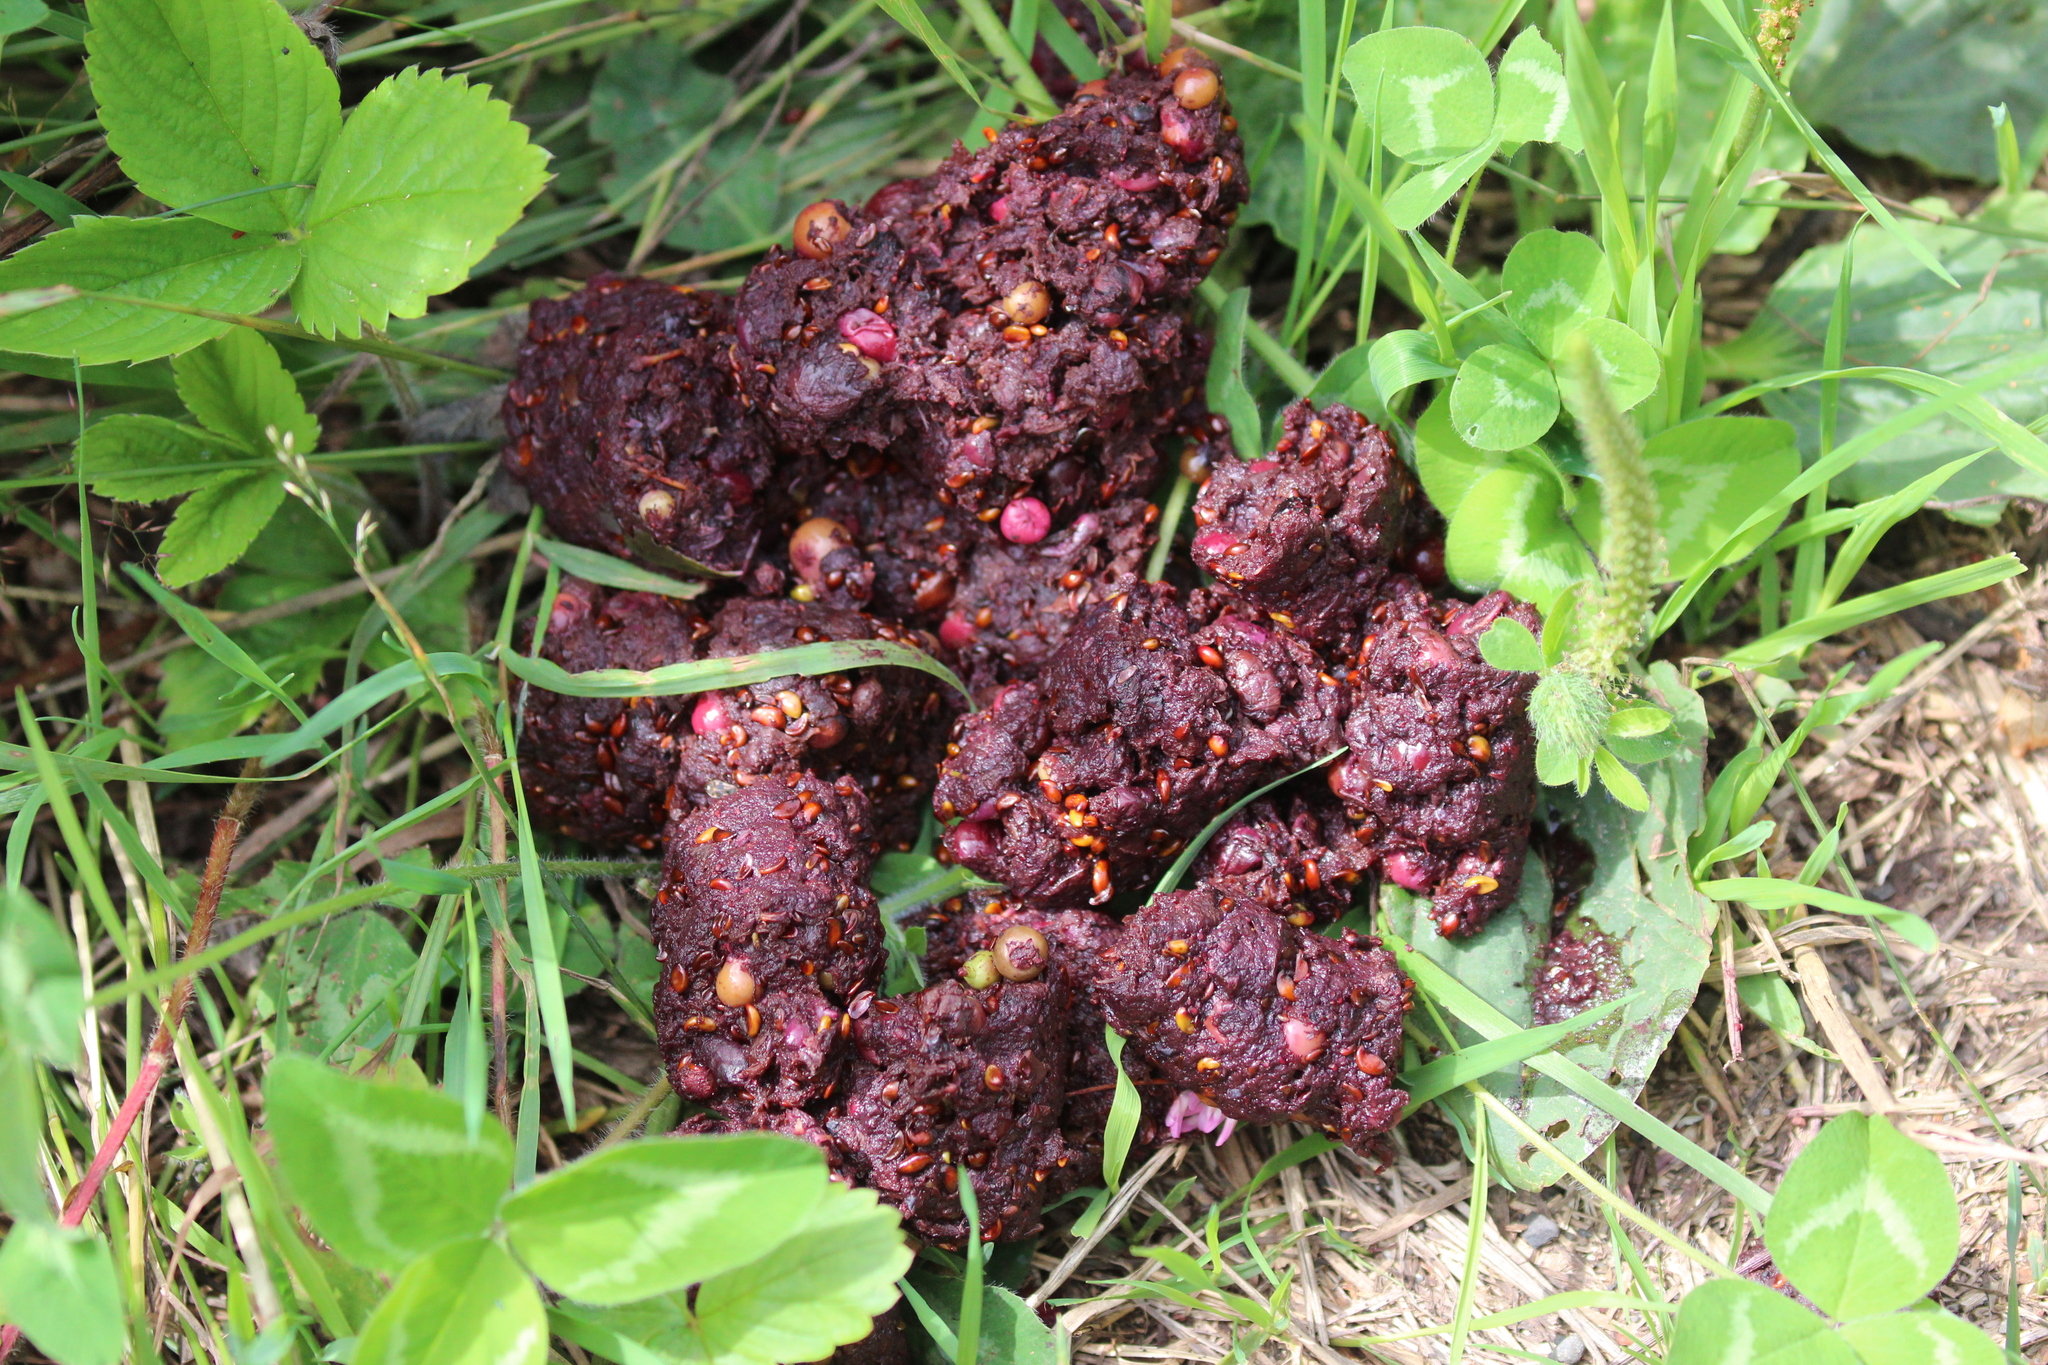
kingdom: Animalia
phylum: Chordata
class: Mammalia
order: Carnivora
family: Ursidae
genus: Ursus
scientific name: Ursus americanus
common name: American black bear
